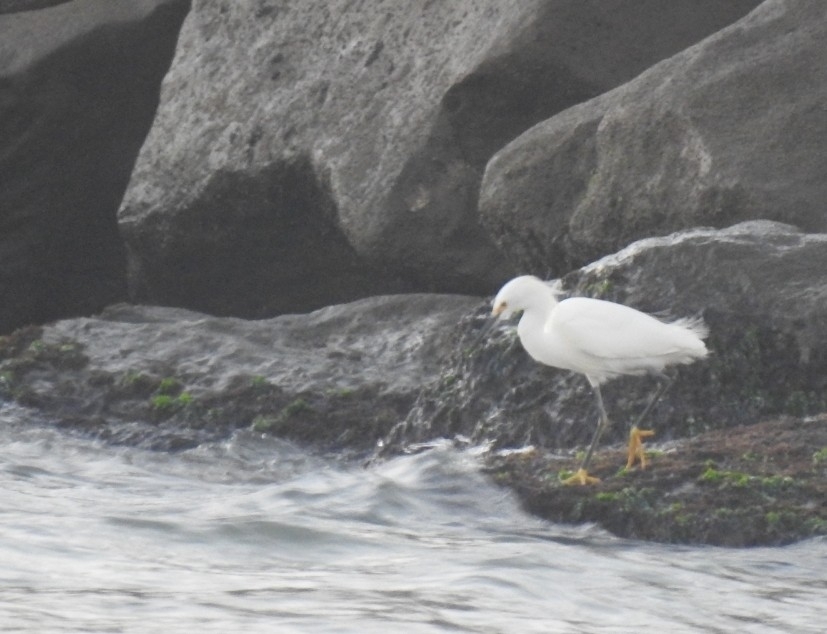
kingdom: Animalia
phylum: Chordata
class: Aves
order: Pelecaniformes
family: Ardeidae
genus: Egretta
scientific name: Egretta thula
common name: Snowy egret
